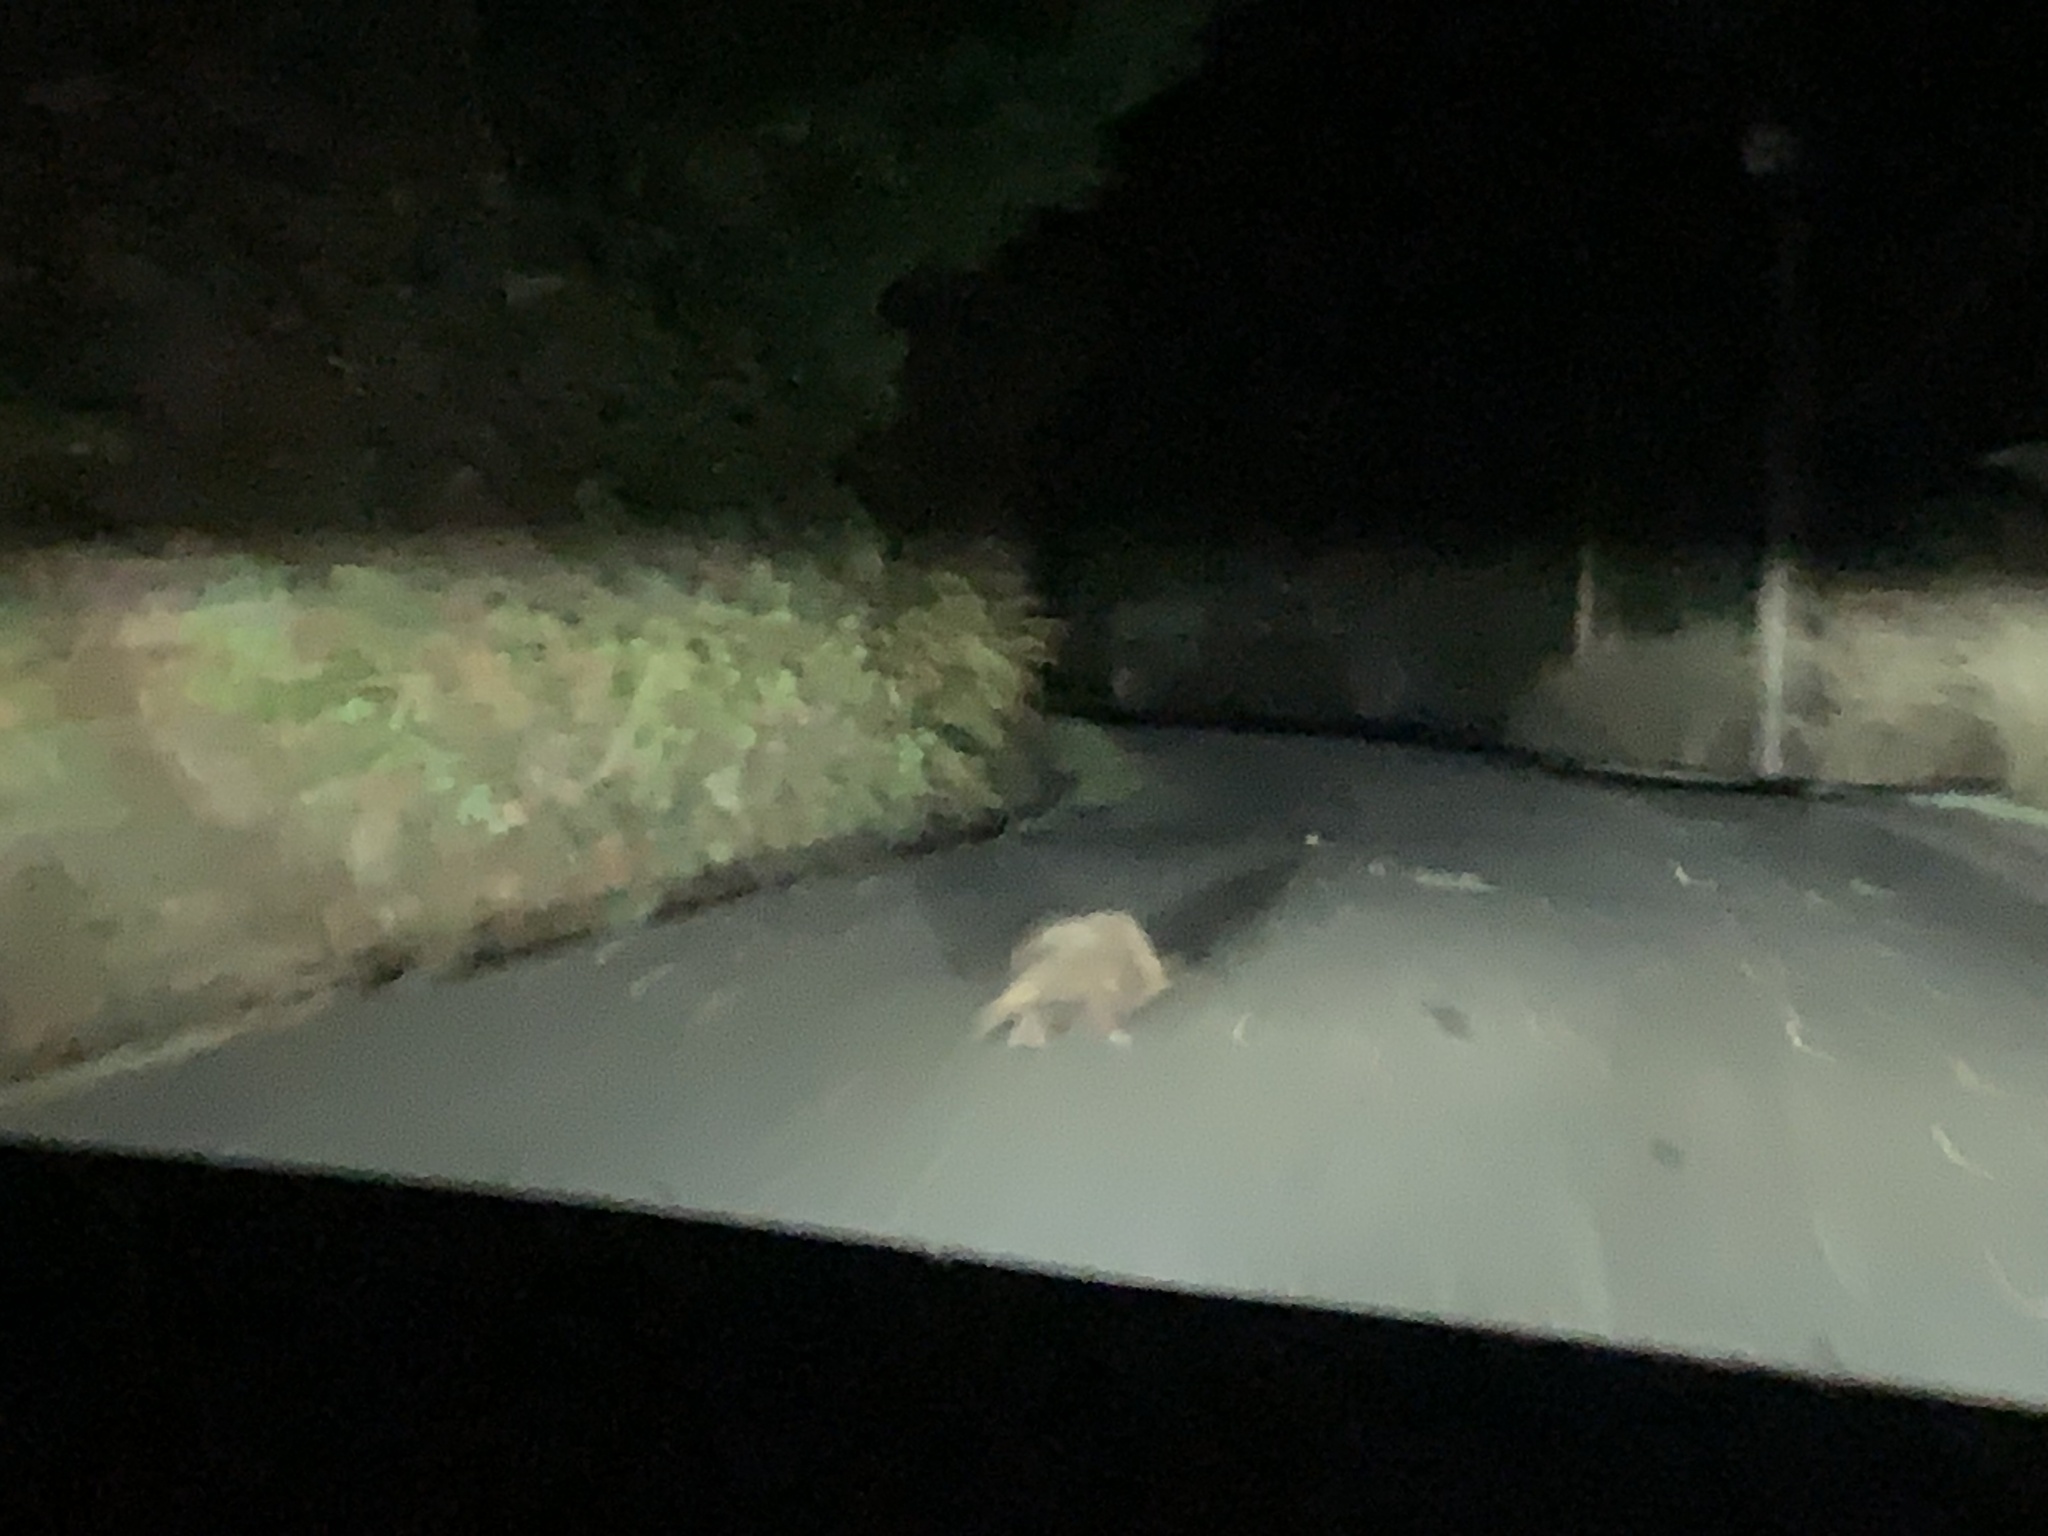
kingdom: Animalia
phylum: Chordata
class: Mammalia
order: Carnivora
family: Mustelidae
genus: Lontra
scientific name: Lontra canadensis
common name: North american river otter
